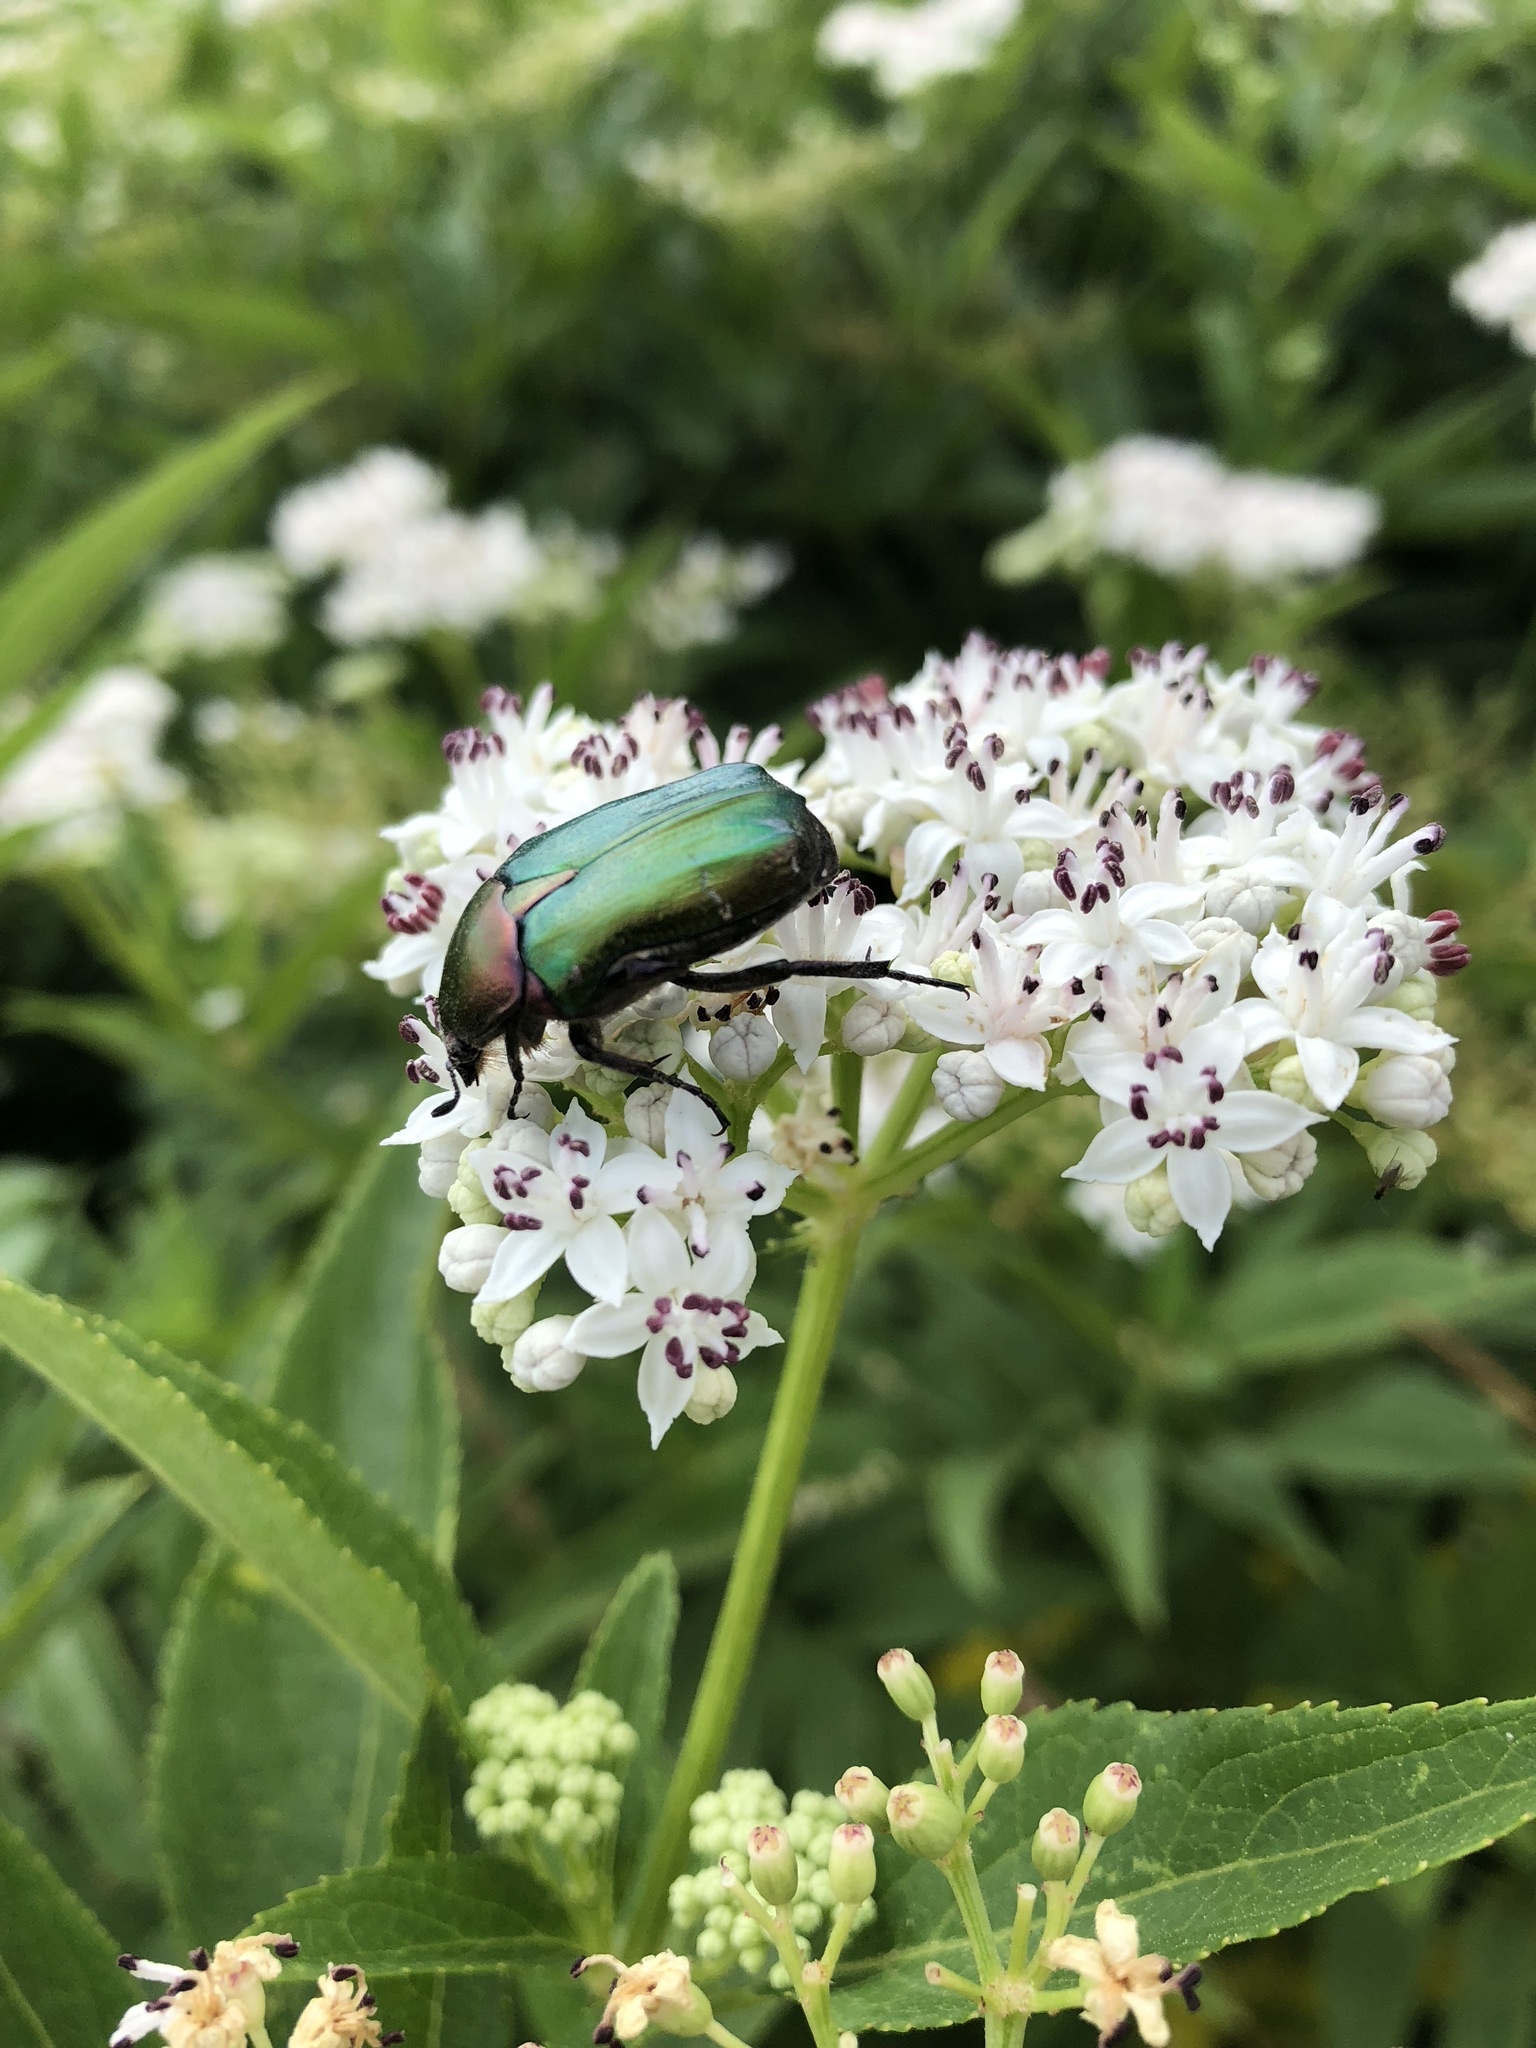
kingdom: Animalia
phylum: Arthropoda
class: Insecta
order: Coleoptera
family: Scarabaeidae
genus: Cetonia
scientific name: Cetonia aurata
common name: Rose chafer
